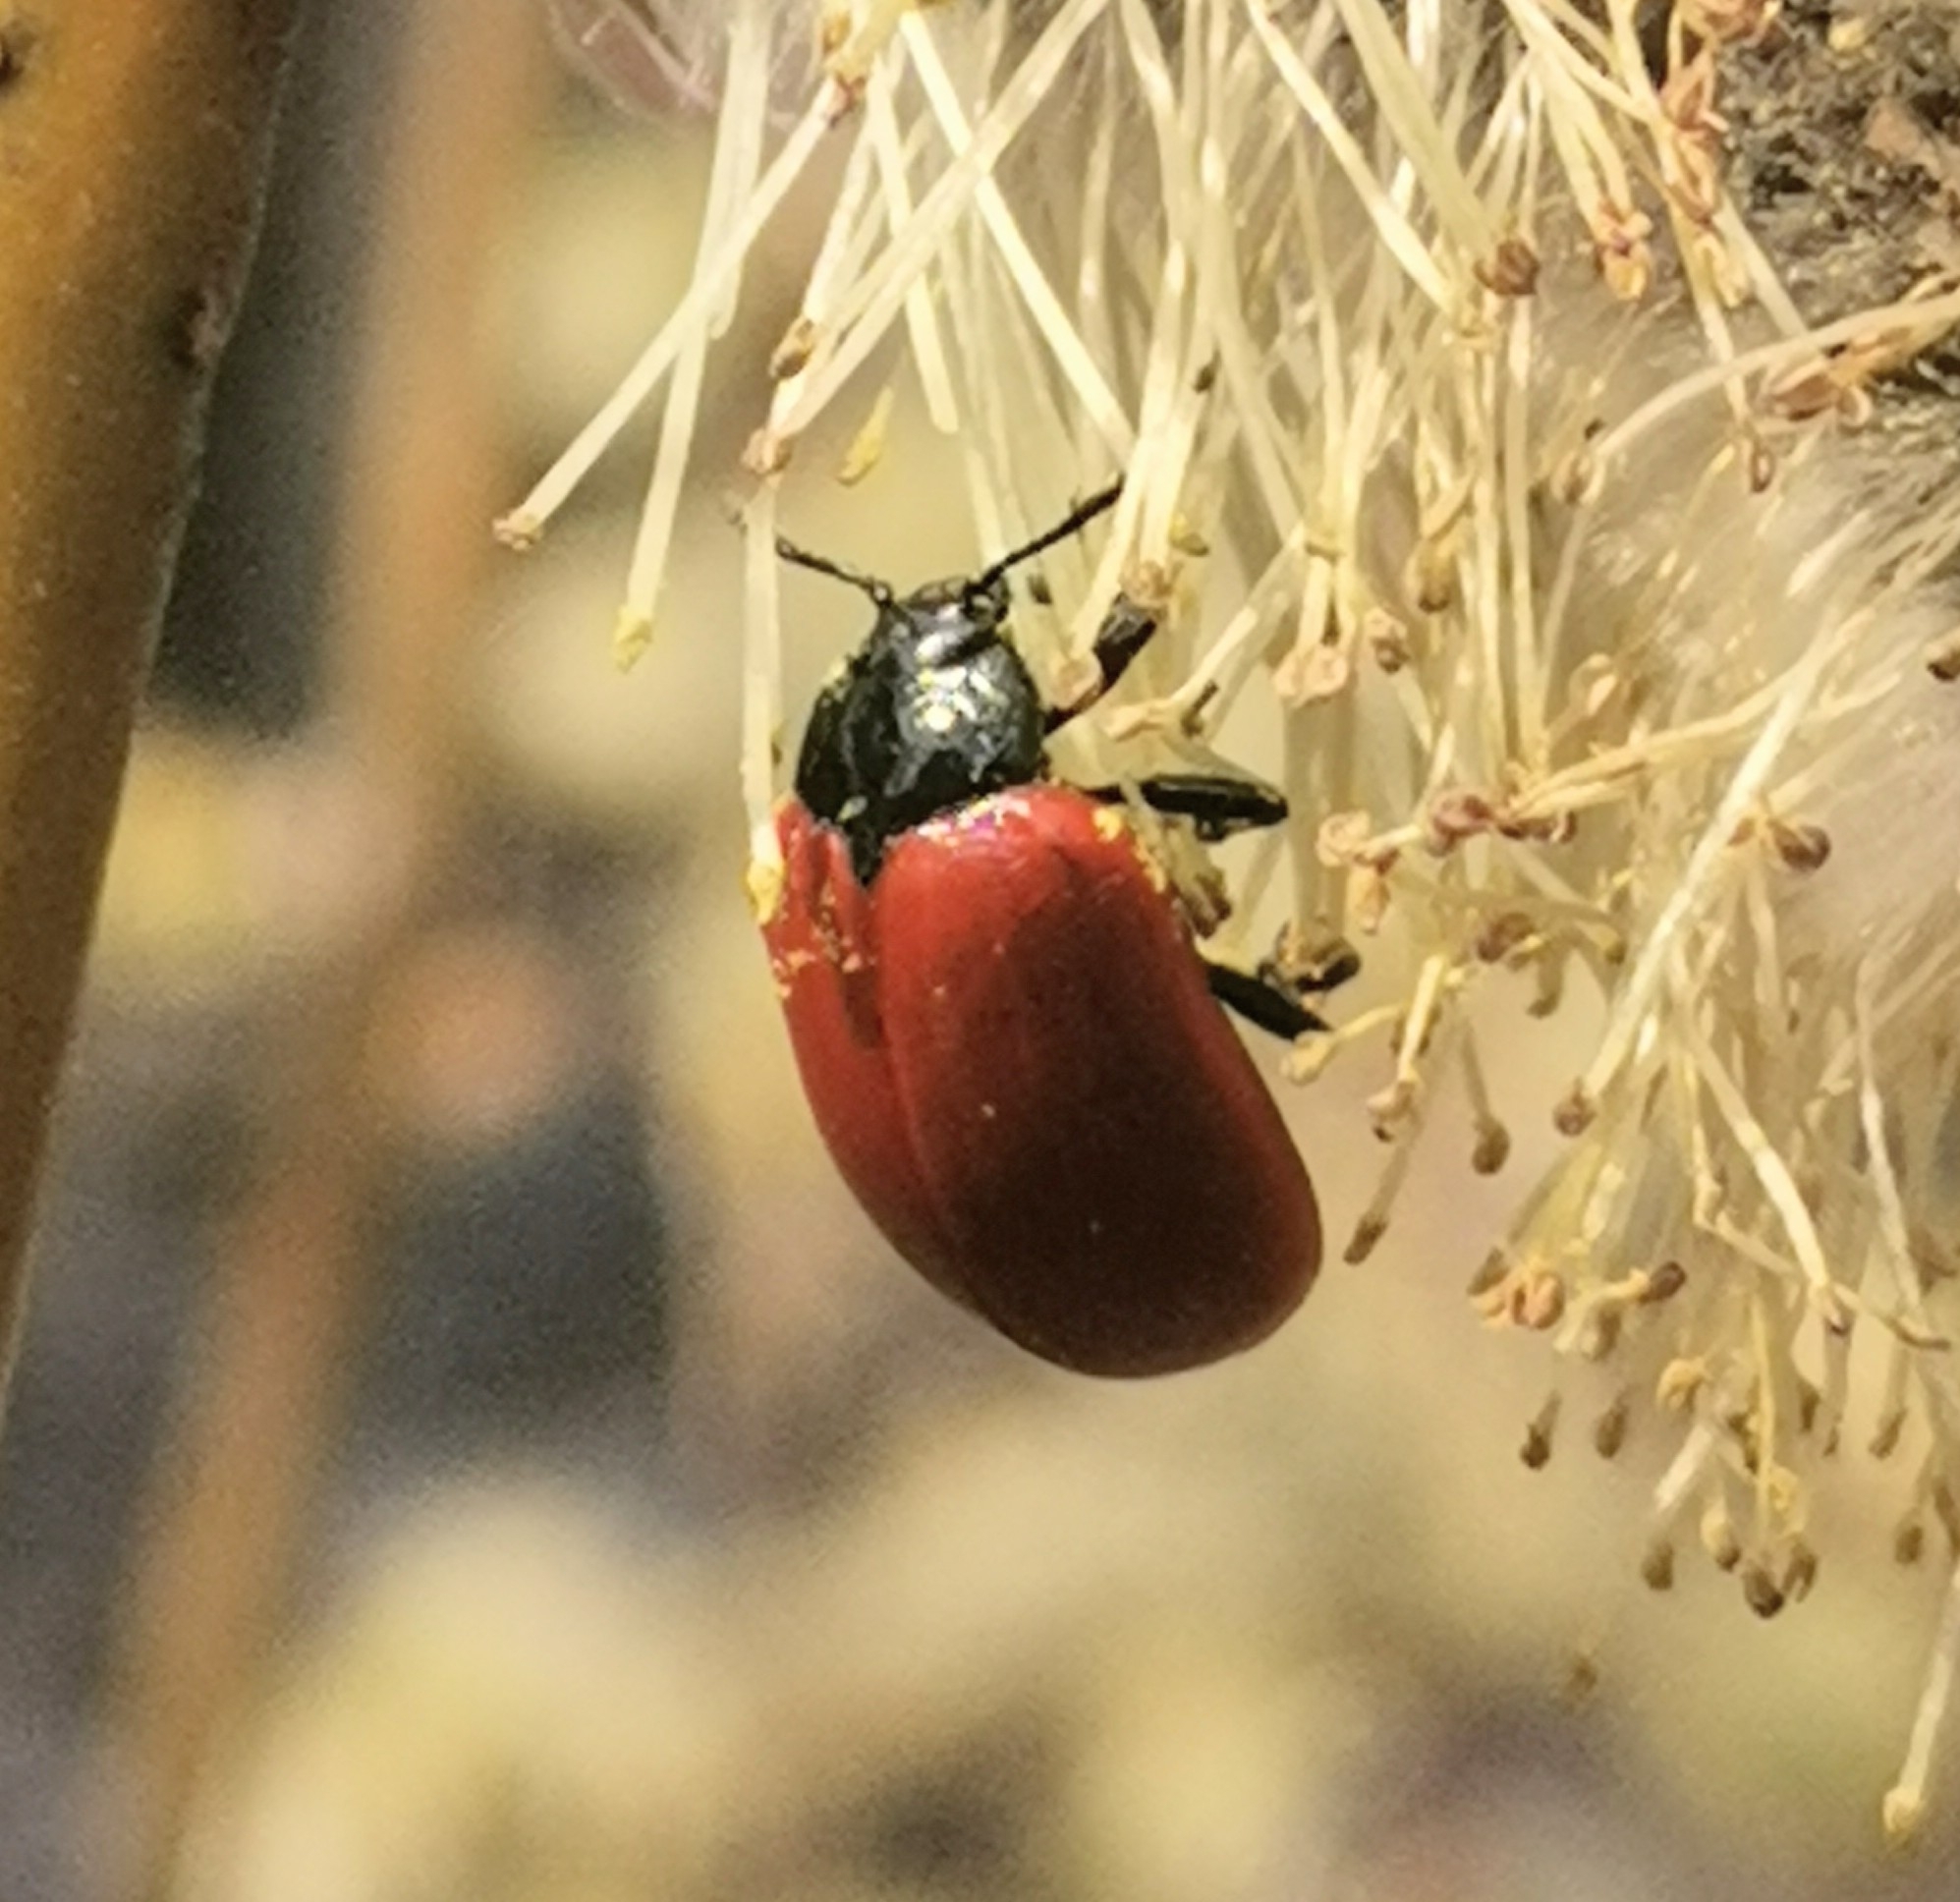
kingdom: Animalia
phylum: Arthropoda
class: Insecta
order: Coleoptera
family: Chrysomelidae
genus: Chrysomela
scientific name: Chrysomela populi
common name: Red poplar leaf beetle
